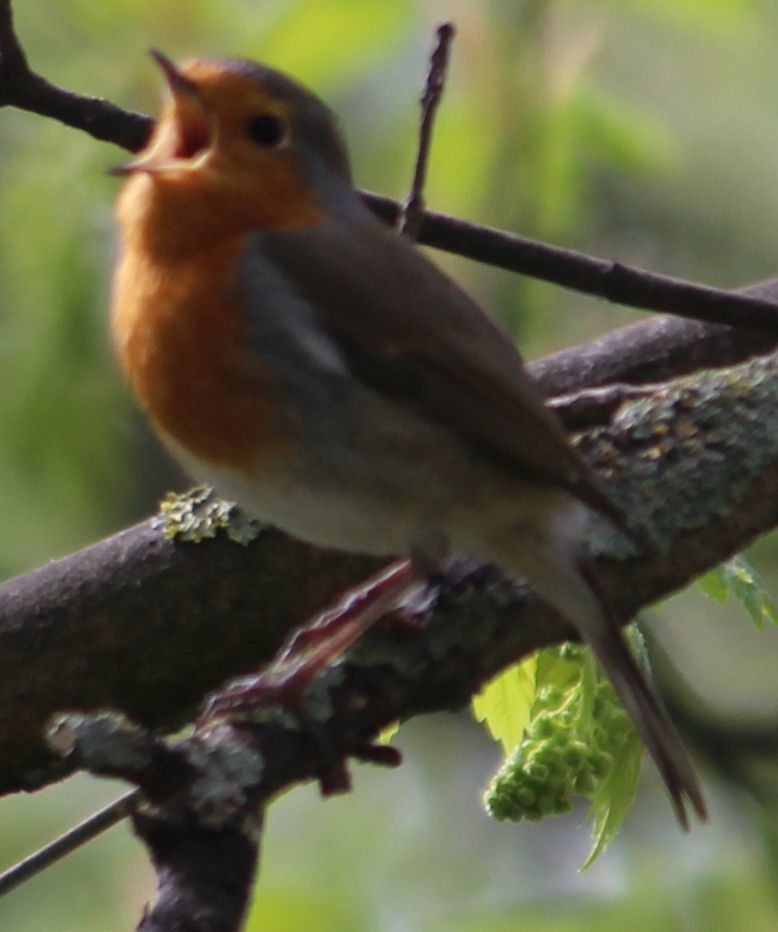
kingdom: Animalia
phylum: Chordata
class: Aves
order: Passeriformes
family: Muscicapidae
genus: Erithacus
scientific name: Erithacus rubecula
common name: European robin
